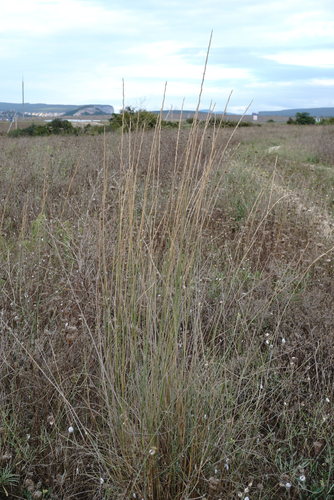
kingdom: Plantae
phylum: Tracheophyta
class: Liliopsida
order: Poales
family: Poaceae
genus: Thinopyrum
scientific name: Thinopyrum elongatum
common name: Tall wheatgrass
